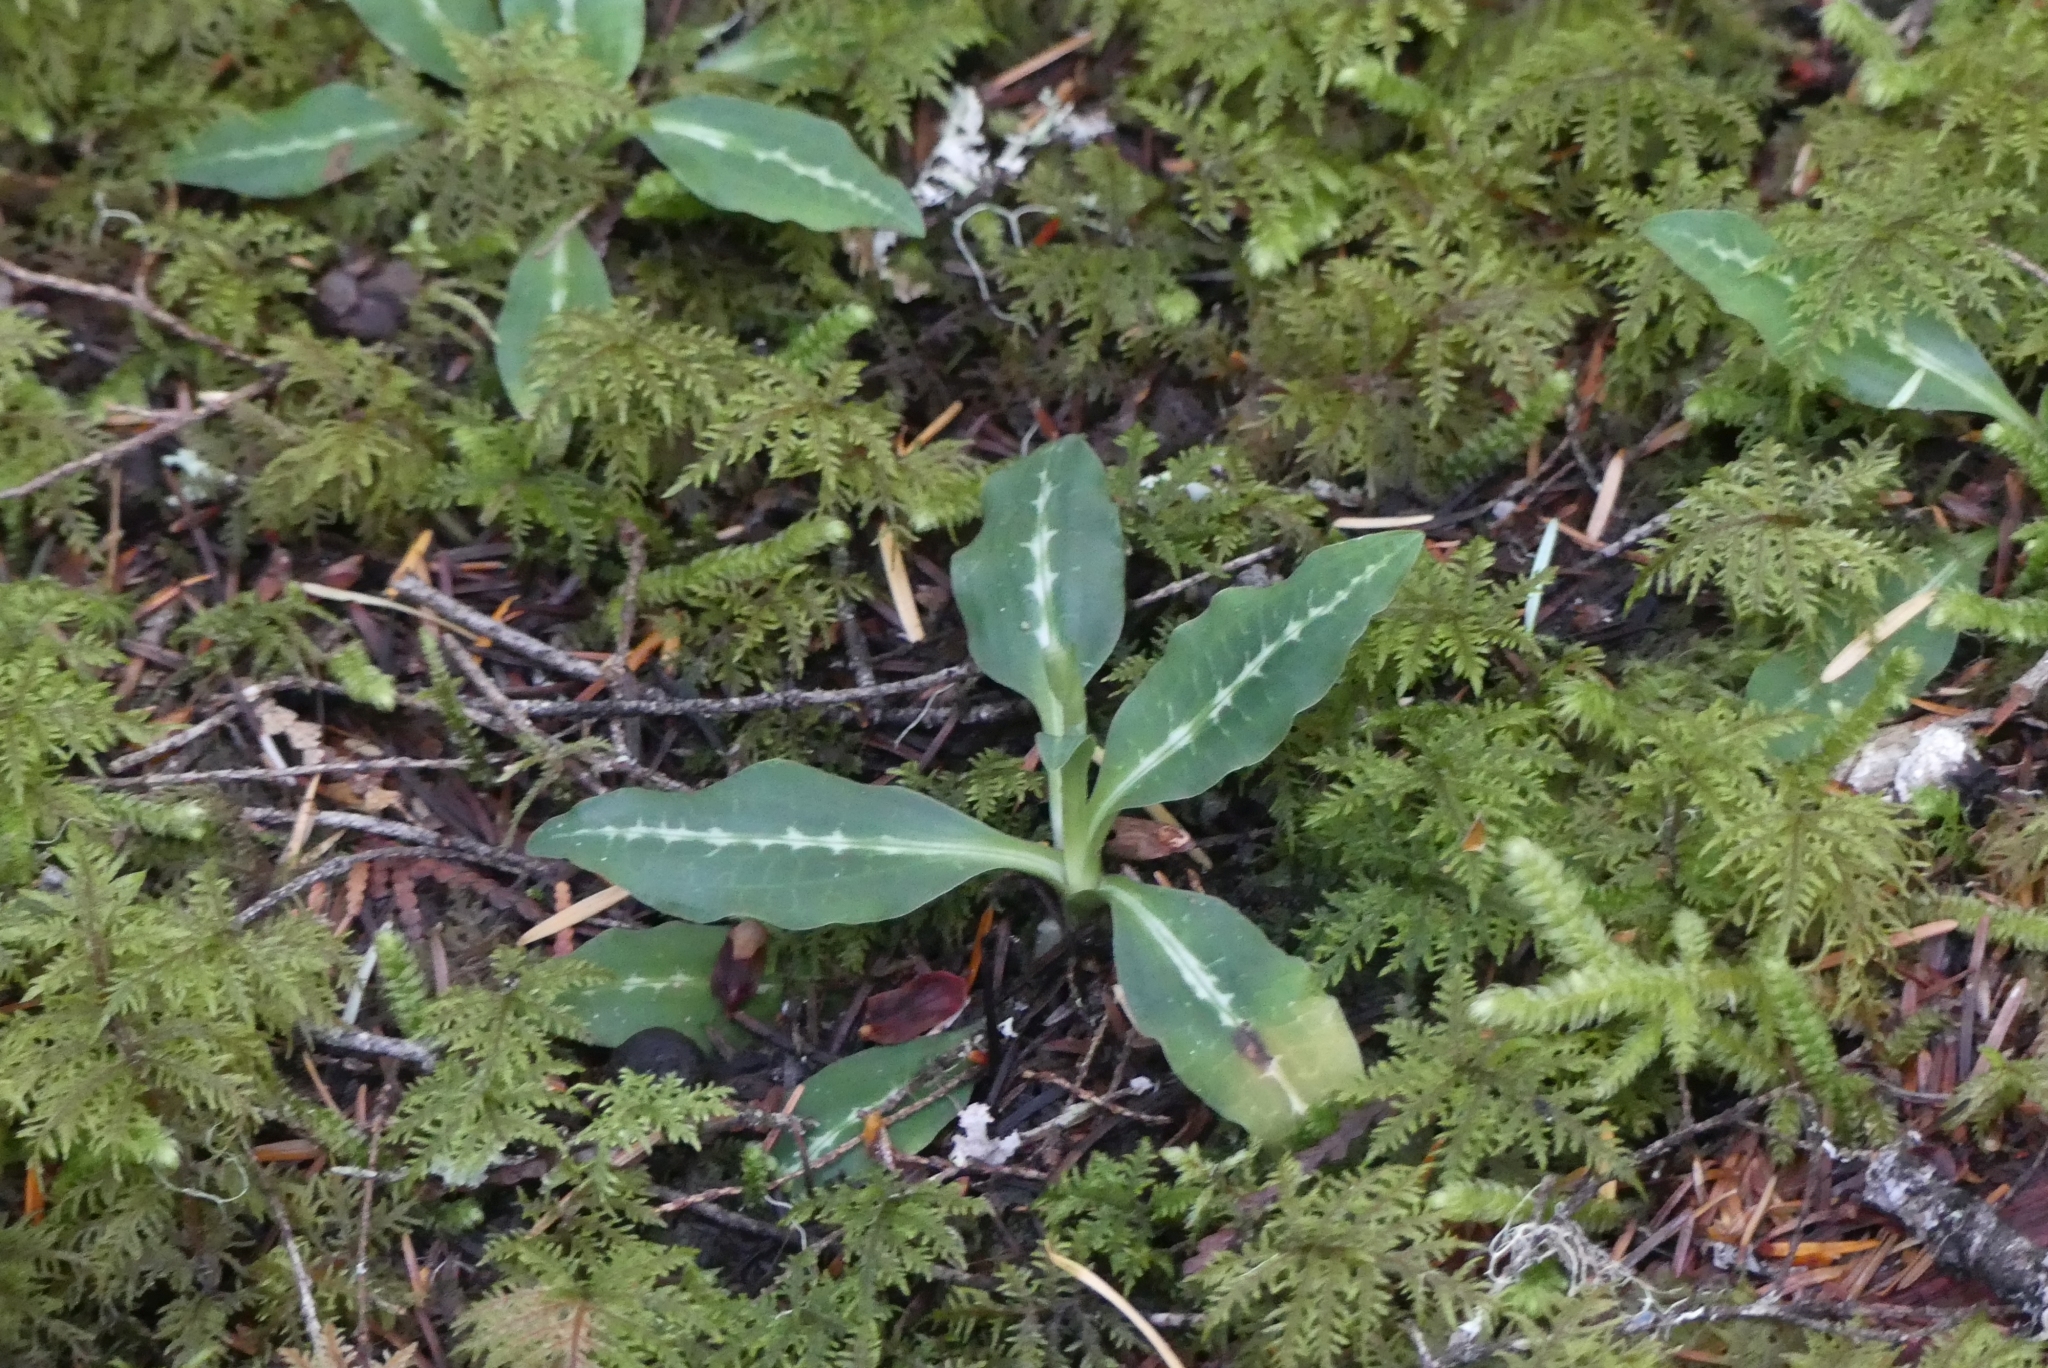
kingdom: Plantae
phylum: Tracheophyta
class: Liliopsida
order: Asparagales
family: Orchidaceae
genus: Goodyera
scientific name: Goodyera oblongifolia
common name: Giant rattlesnake-plantain
